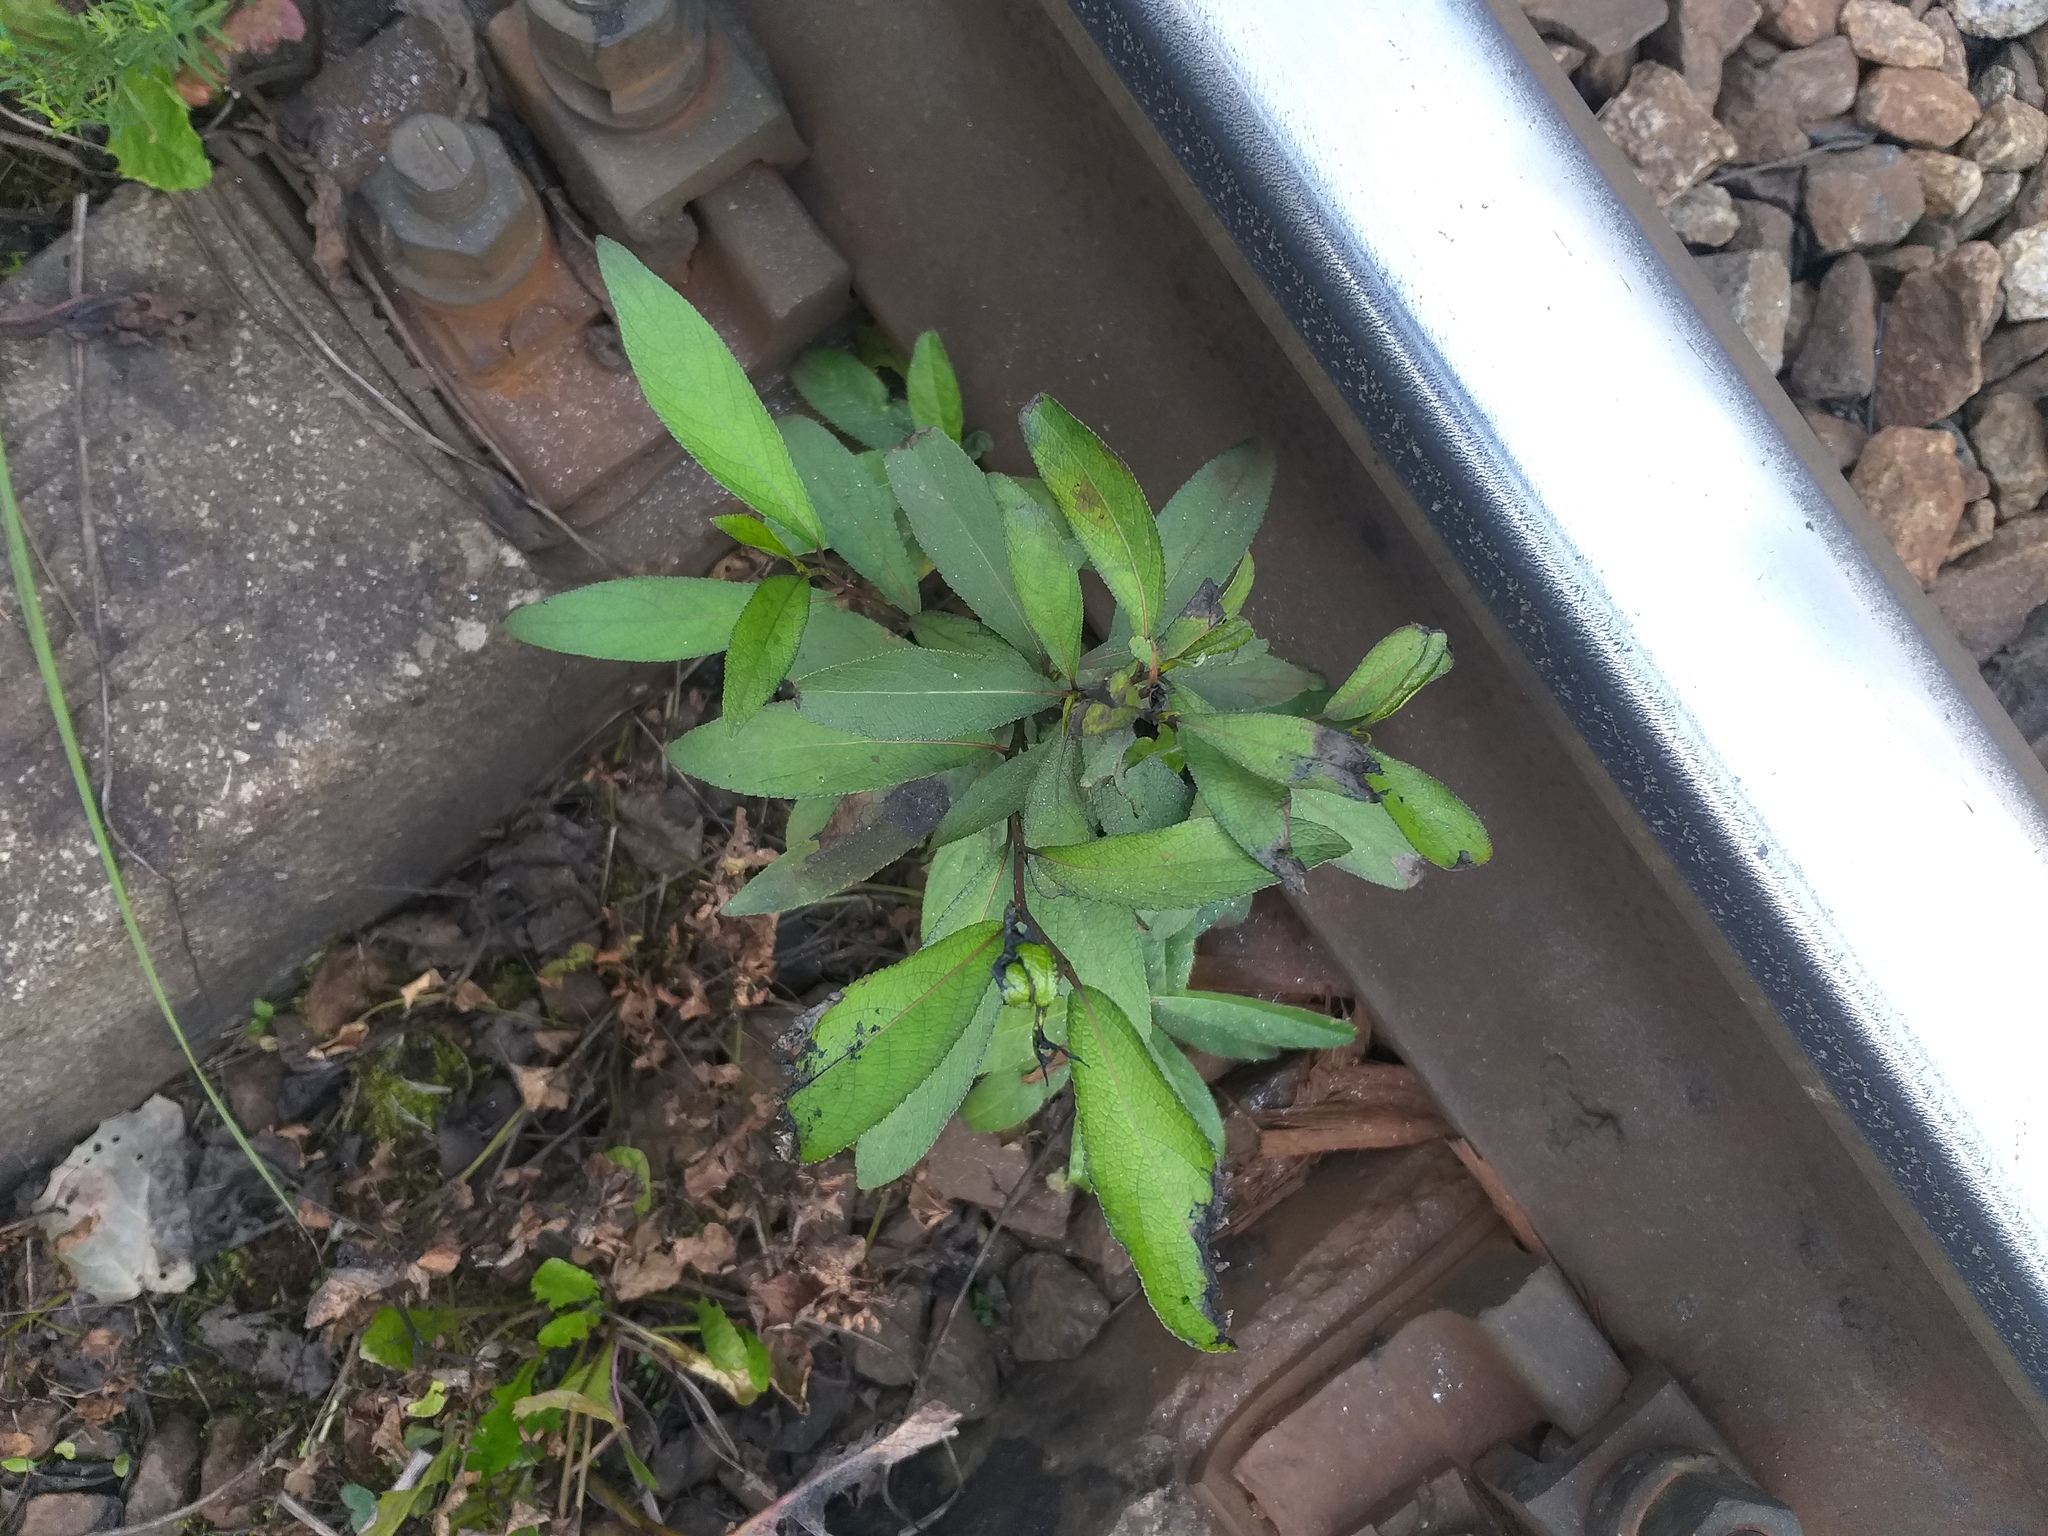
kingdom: Plantae
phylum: Tracheophyta
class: Magnoliopsida
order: Malpighiales
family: Salicaceae
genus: Populus
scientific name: Populus
